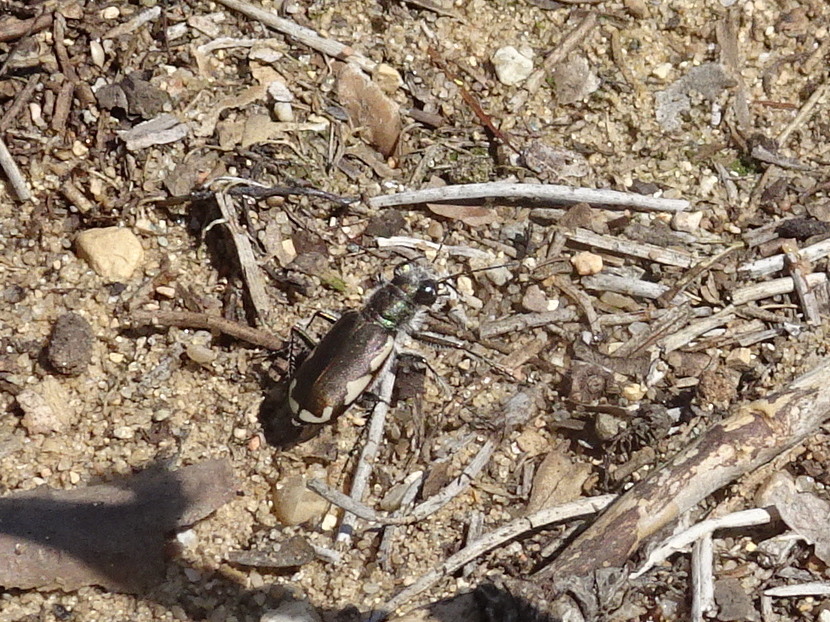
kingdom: Animalia
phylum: Arthropoda
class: Insecta
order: Coleoptera
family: Carabidae
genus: Cicindela
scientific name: Cicindela scutellaris
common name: Festive tiger beetle
